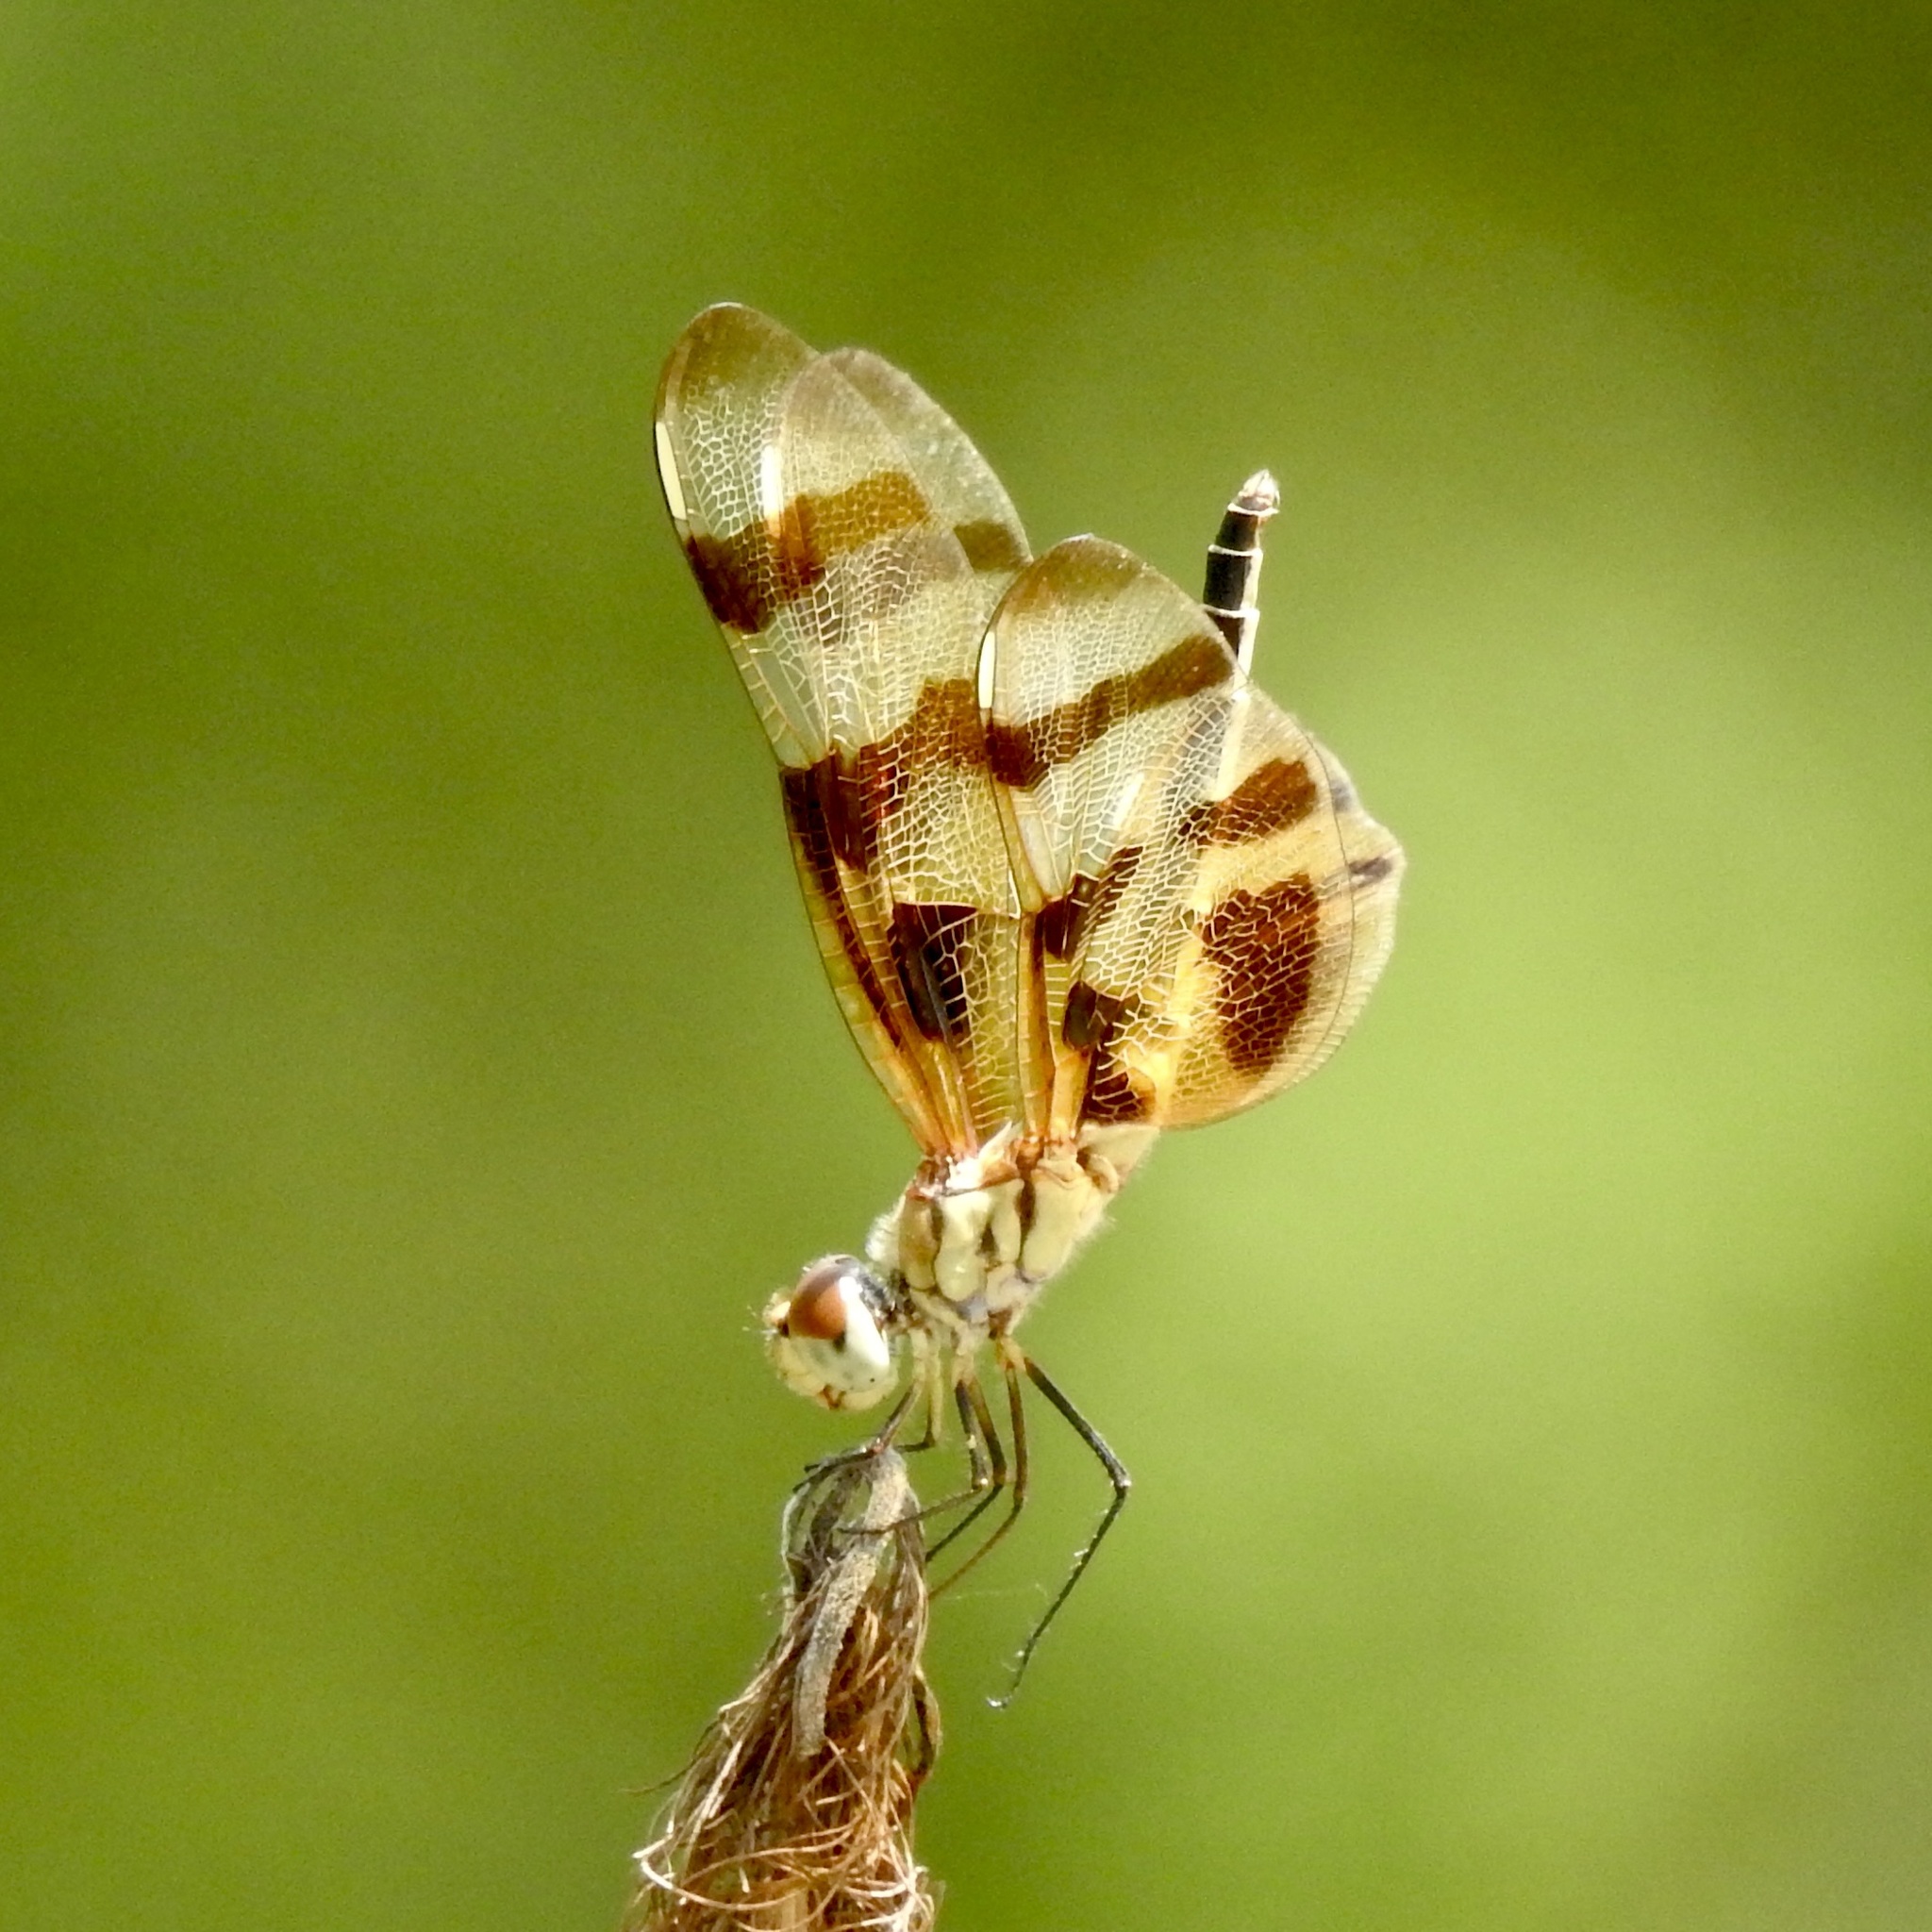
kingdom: Animalia
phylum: Arthropoda
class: Insecta
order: Odonata
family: Libellulidae
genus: Celithemis
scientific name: Celithemis eponina
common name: Halloween pennant
